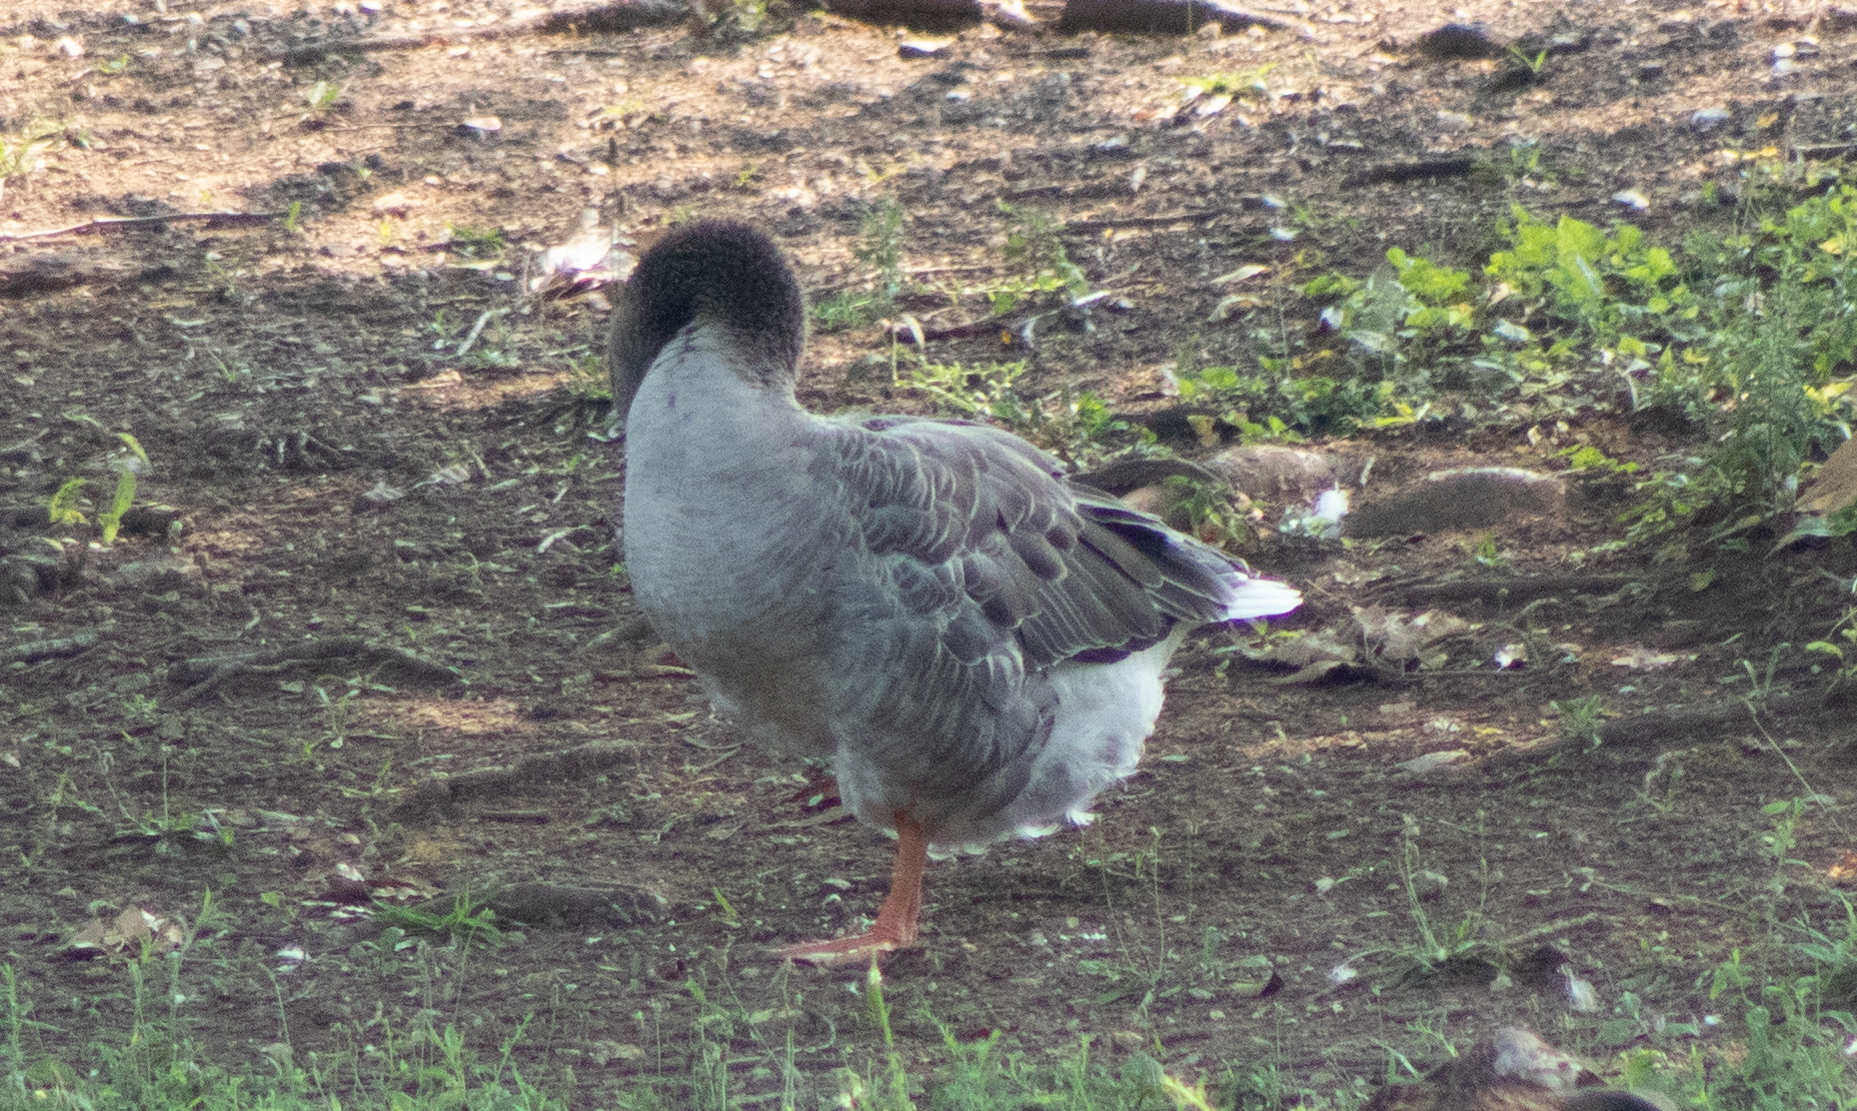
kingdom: Animalia
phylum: Chordata
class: Aves
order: Anseriformes
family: Anatidae
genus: Anser
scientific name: Anser anser
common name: Greylag goose
